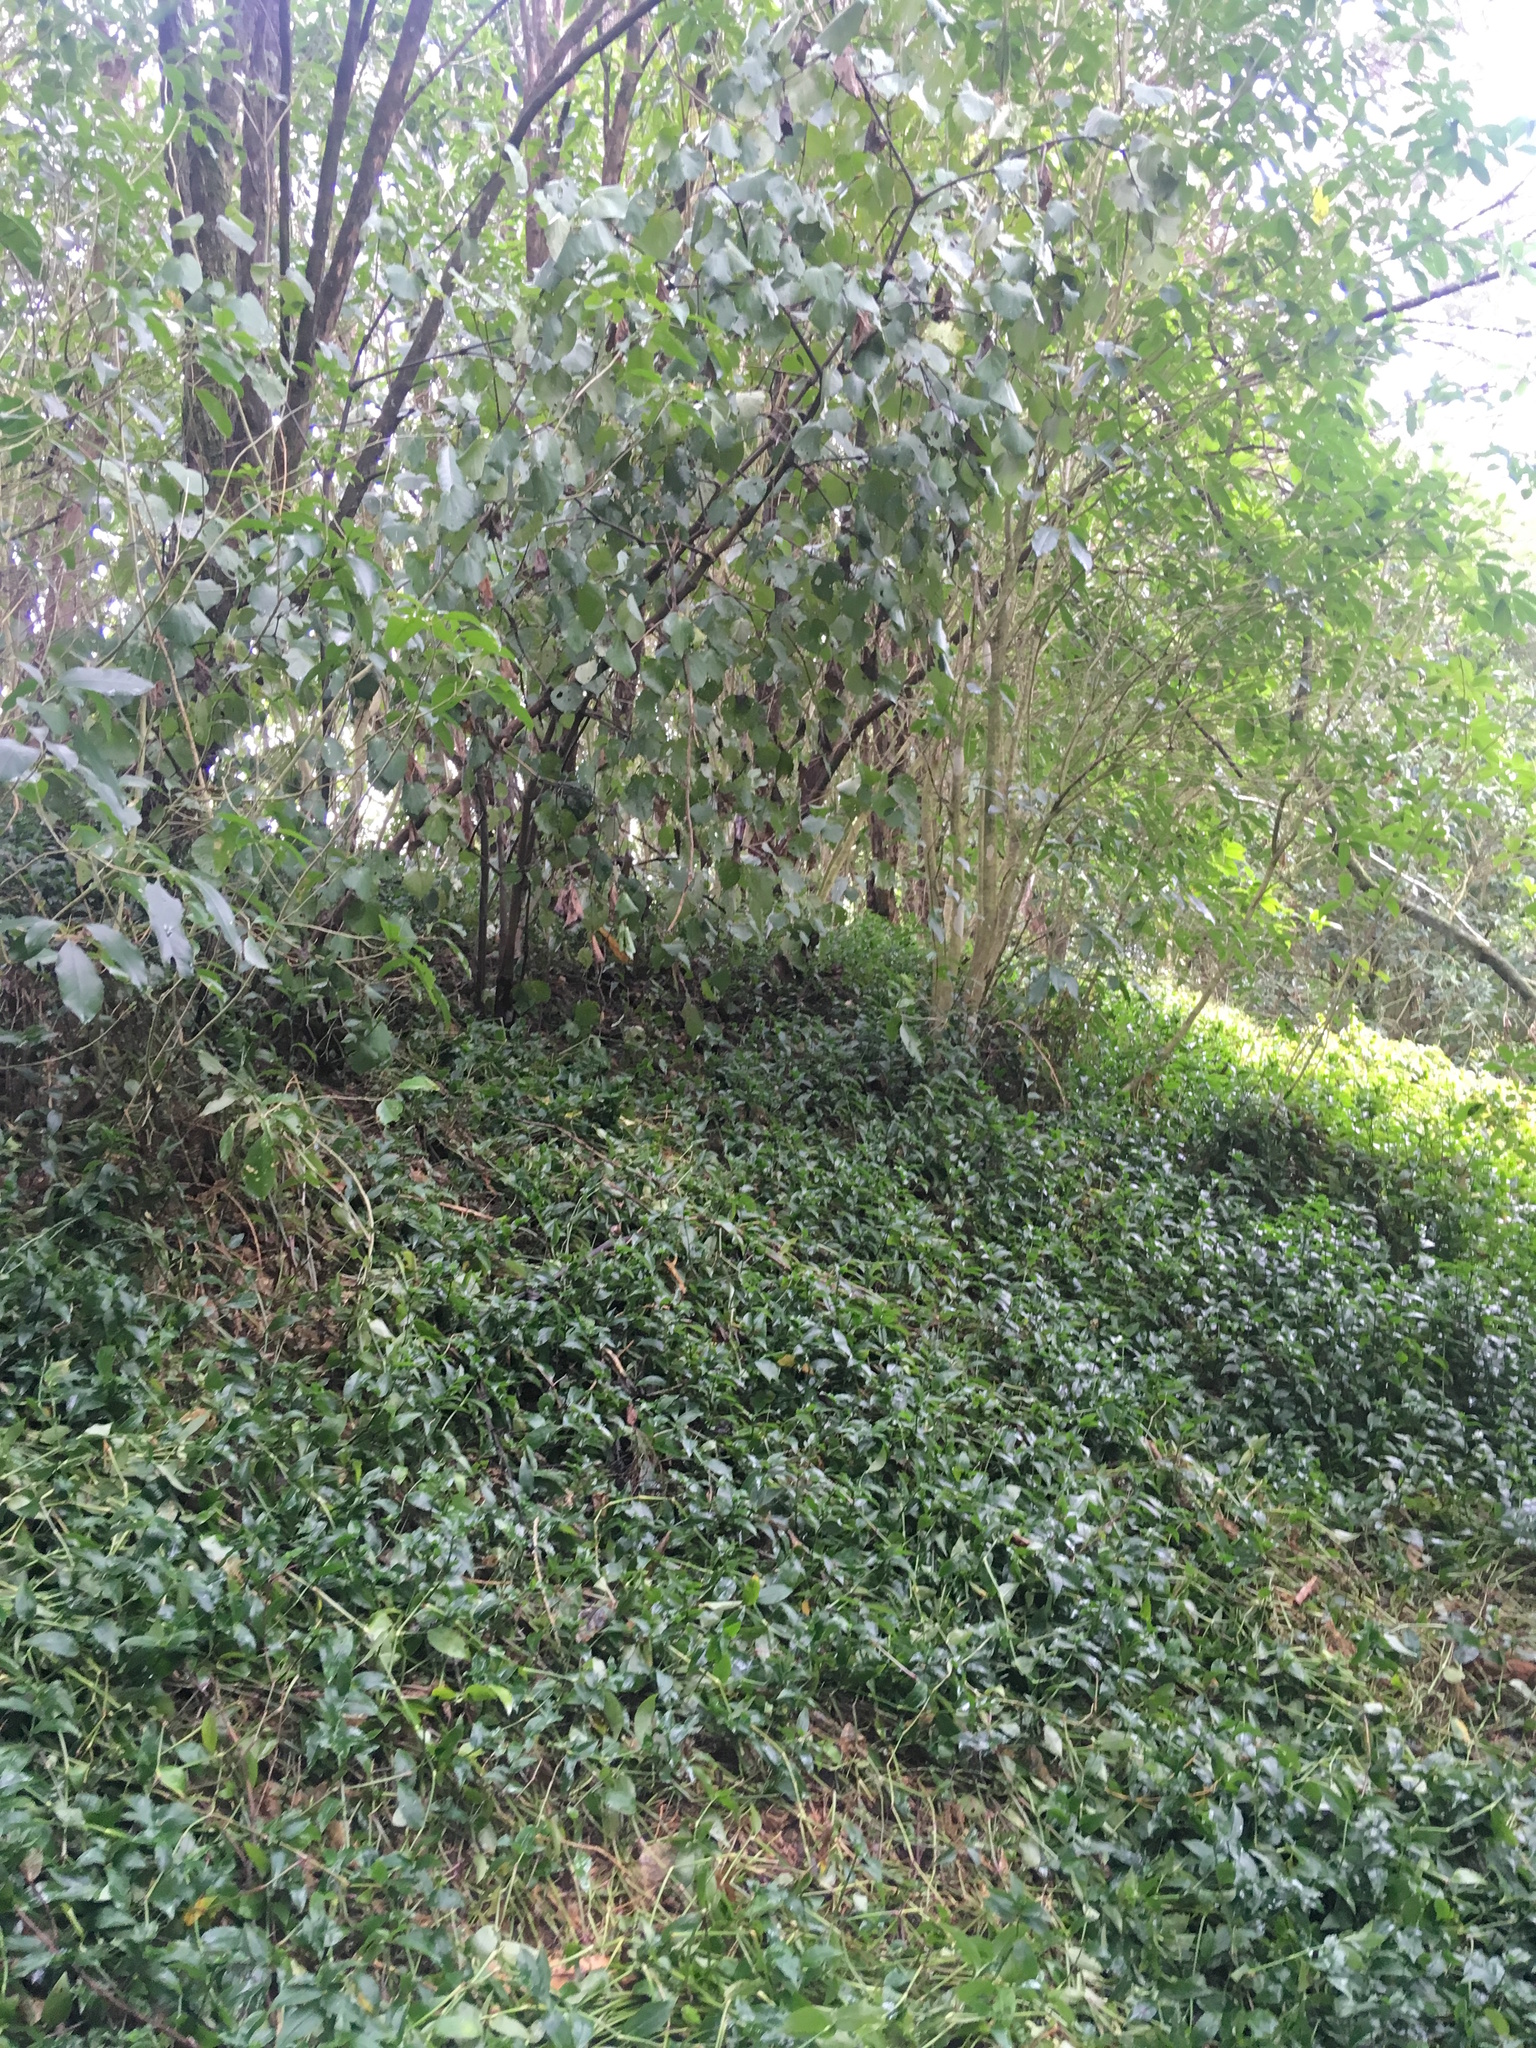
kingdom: Plantae
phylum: Tracheophyta
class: Magnoliopsida
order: Piperales
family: Piperaceae
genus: Macropiper
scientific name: Macropiper excelsum
